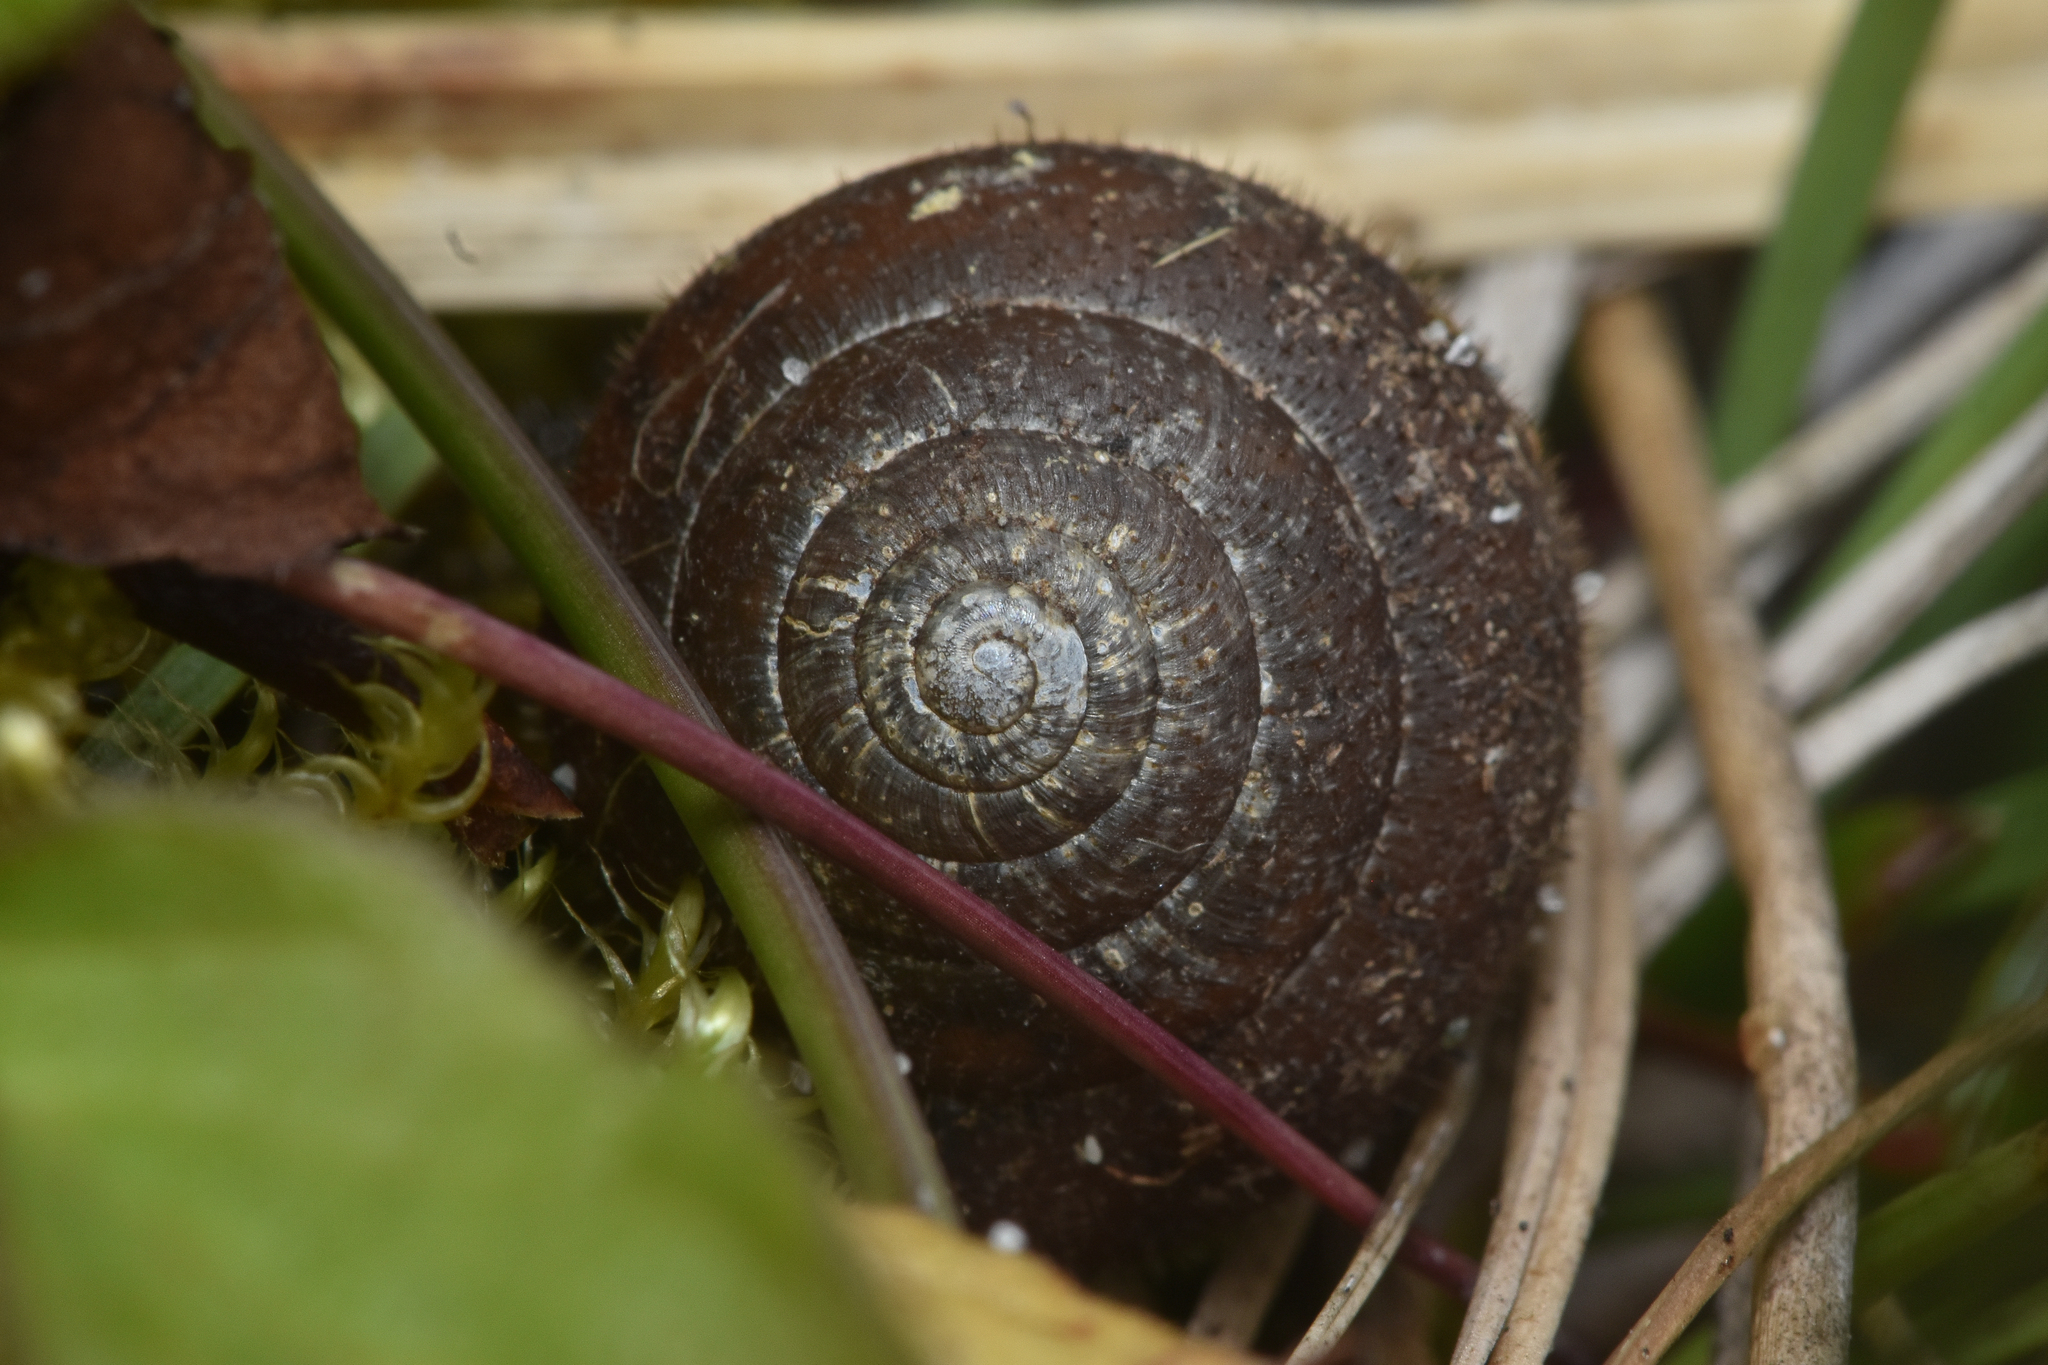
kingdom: Animalia
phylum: Mollusca
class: Gastropoda
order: Stylommatophora
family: Polygyridae
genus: Vespericola
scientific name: Vespericola columbianus
